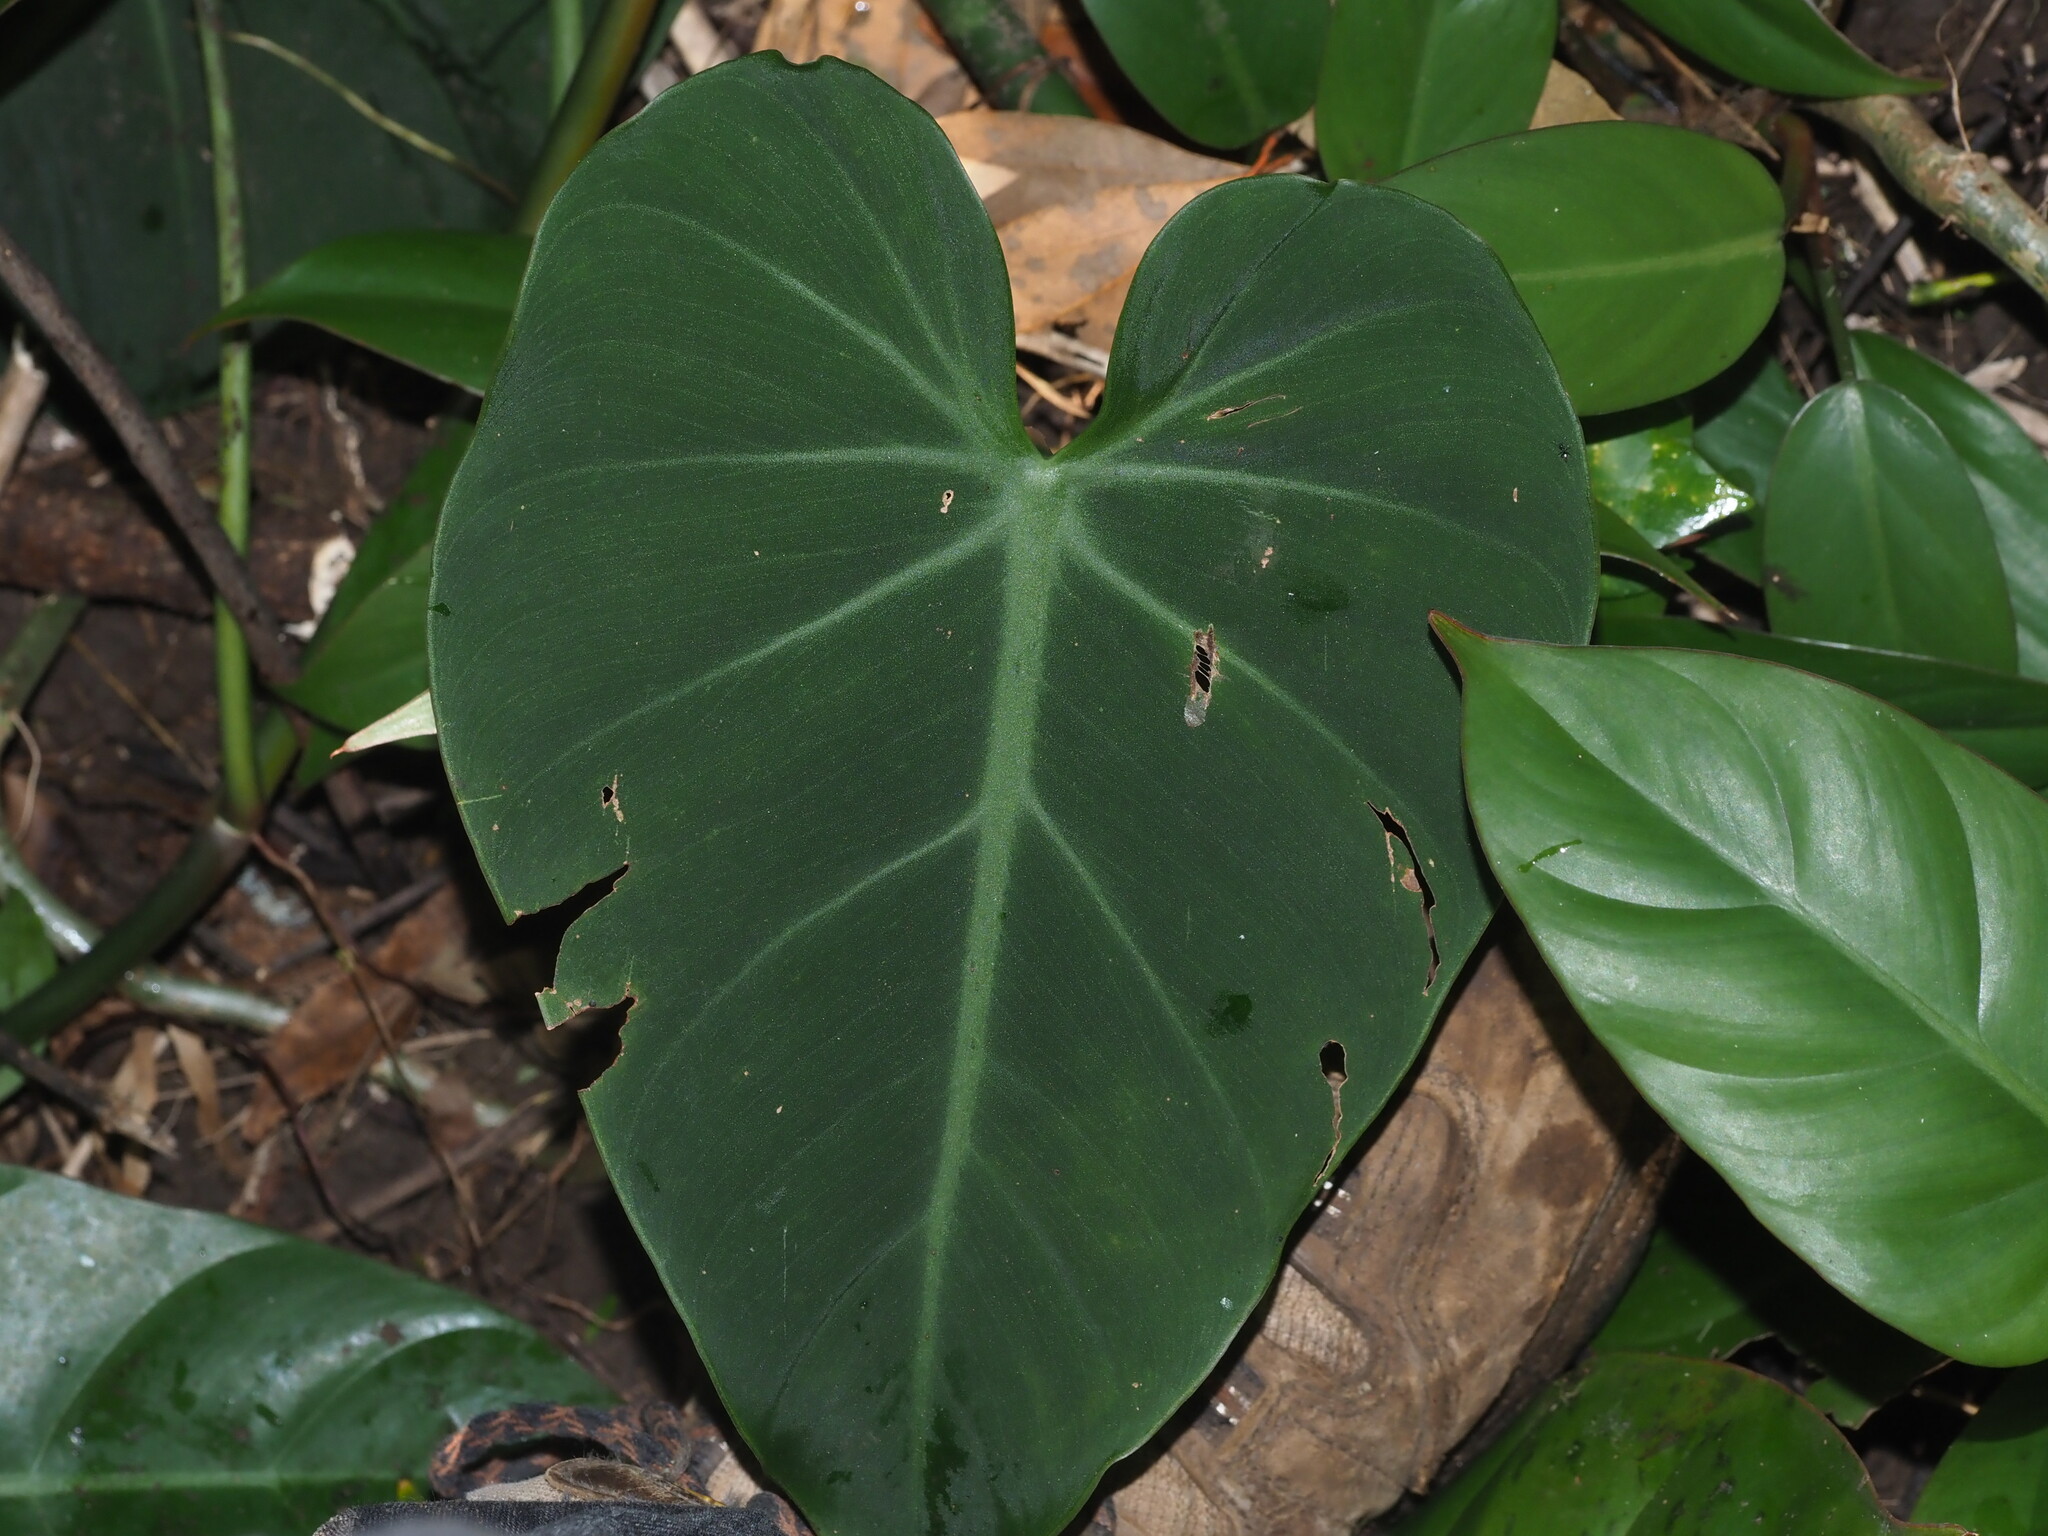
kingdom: Plantae
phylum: Tracheophyta
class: Liliopsida
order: Alismatales
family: Araceae
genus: Philodendron
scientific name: Philodendron hederaceum
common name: Vilevine
